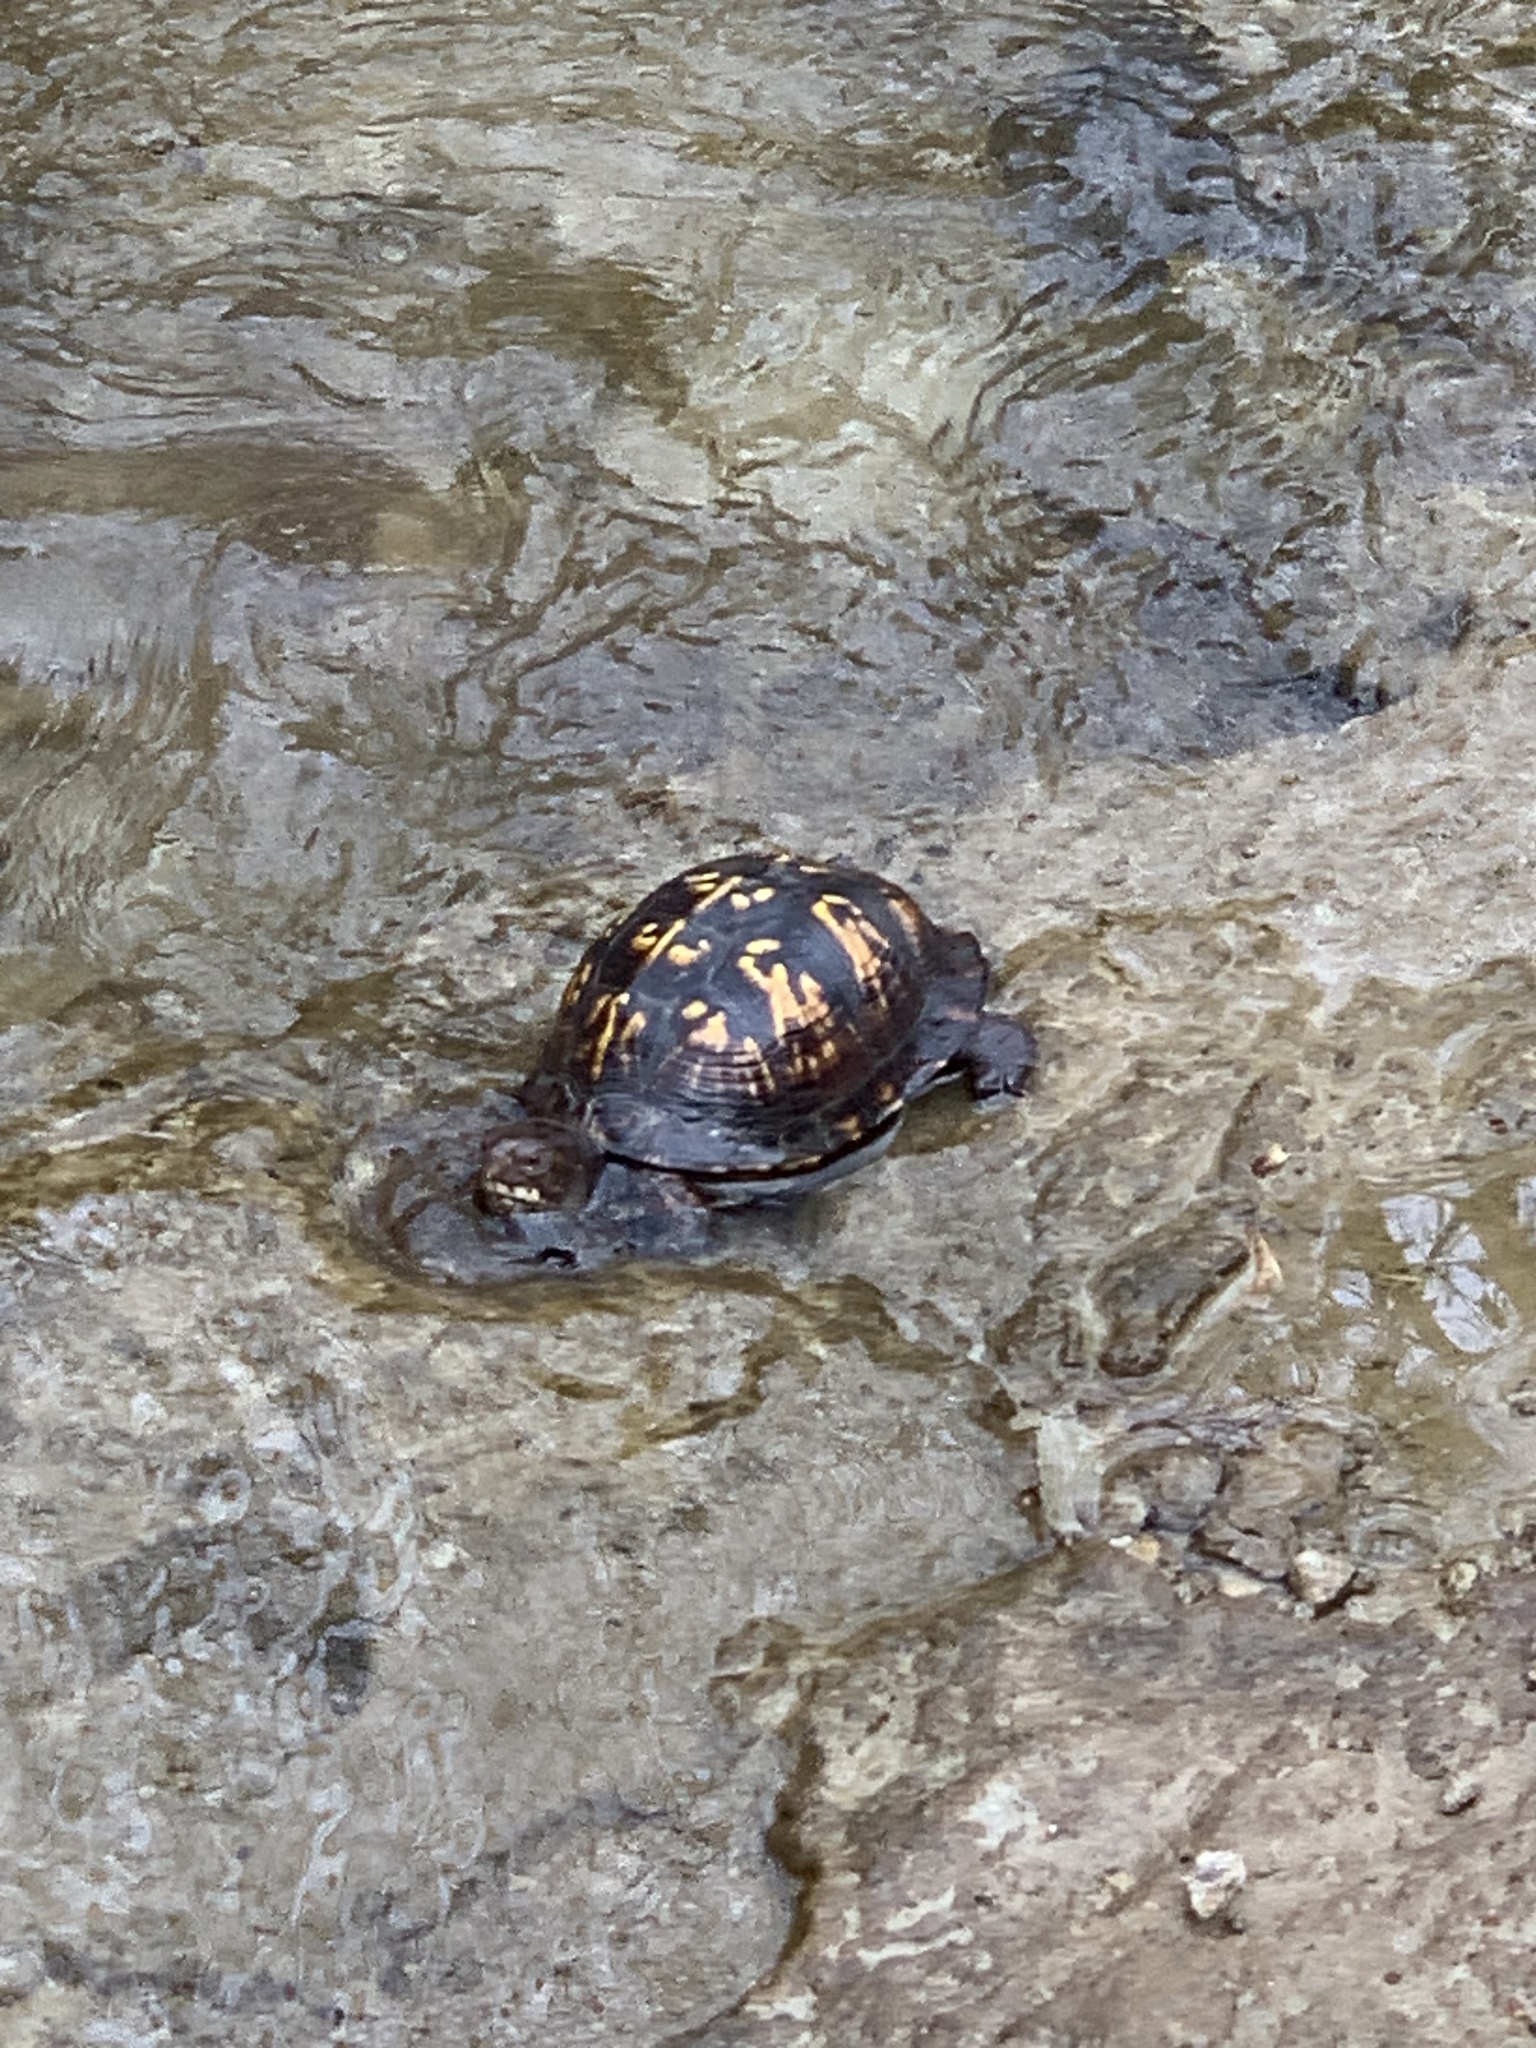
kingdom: Animalia
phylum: Chordata
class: Testudines
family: Emydidae
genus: Terrapene
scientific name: Terrapene carolina
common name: Common box turtle
